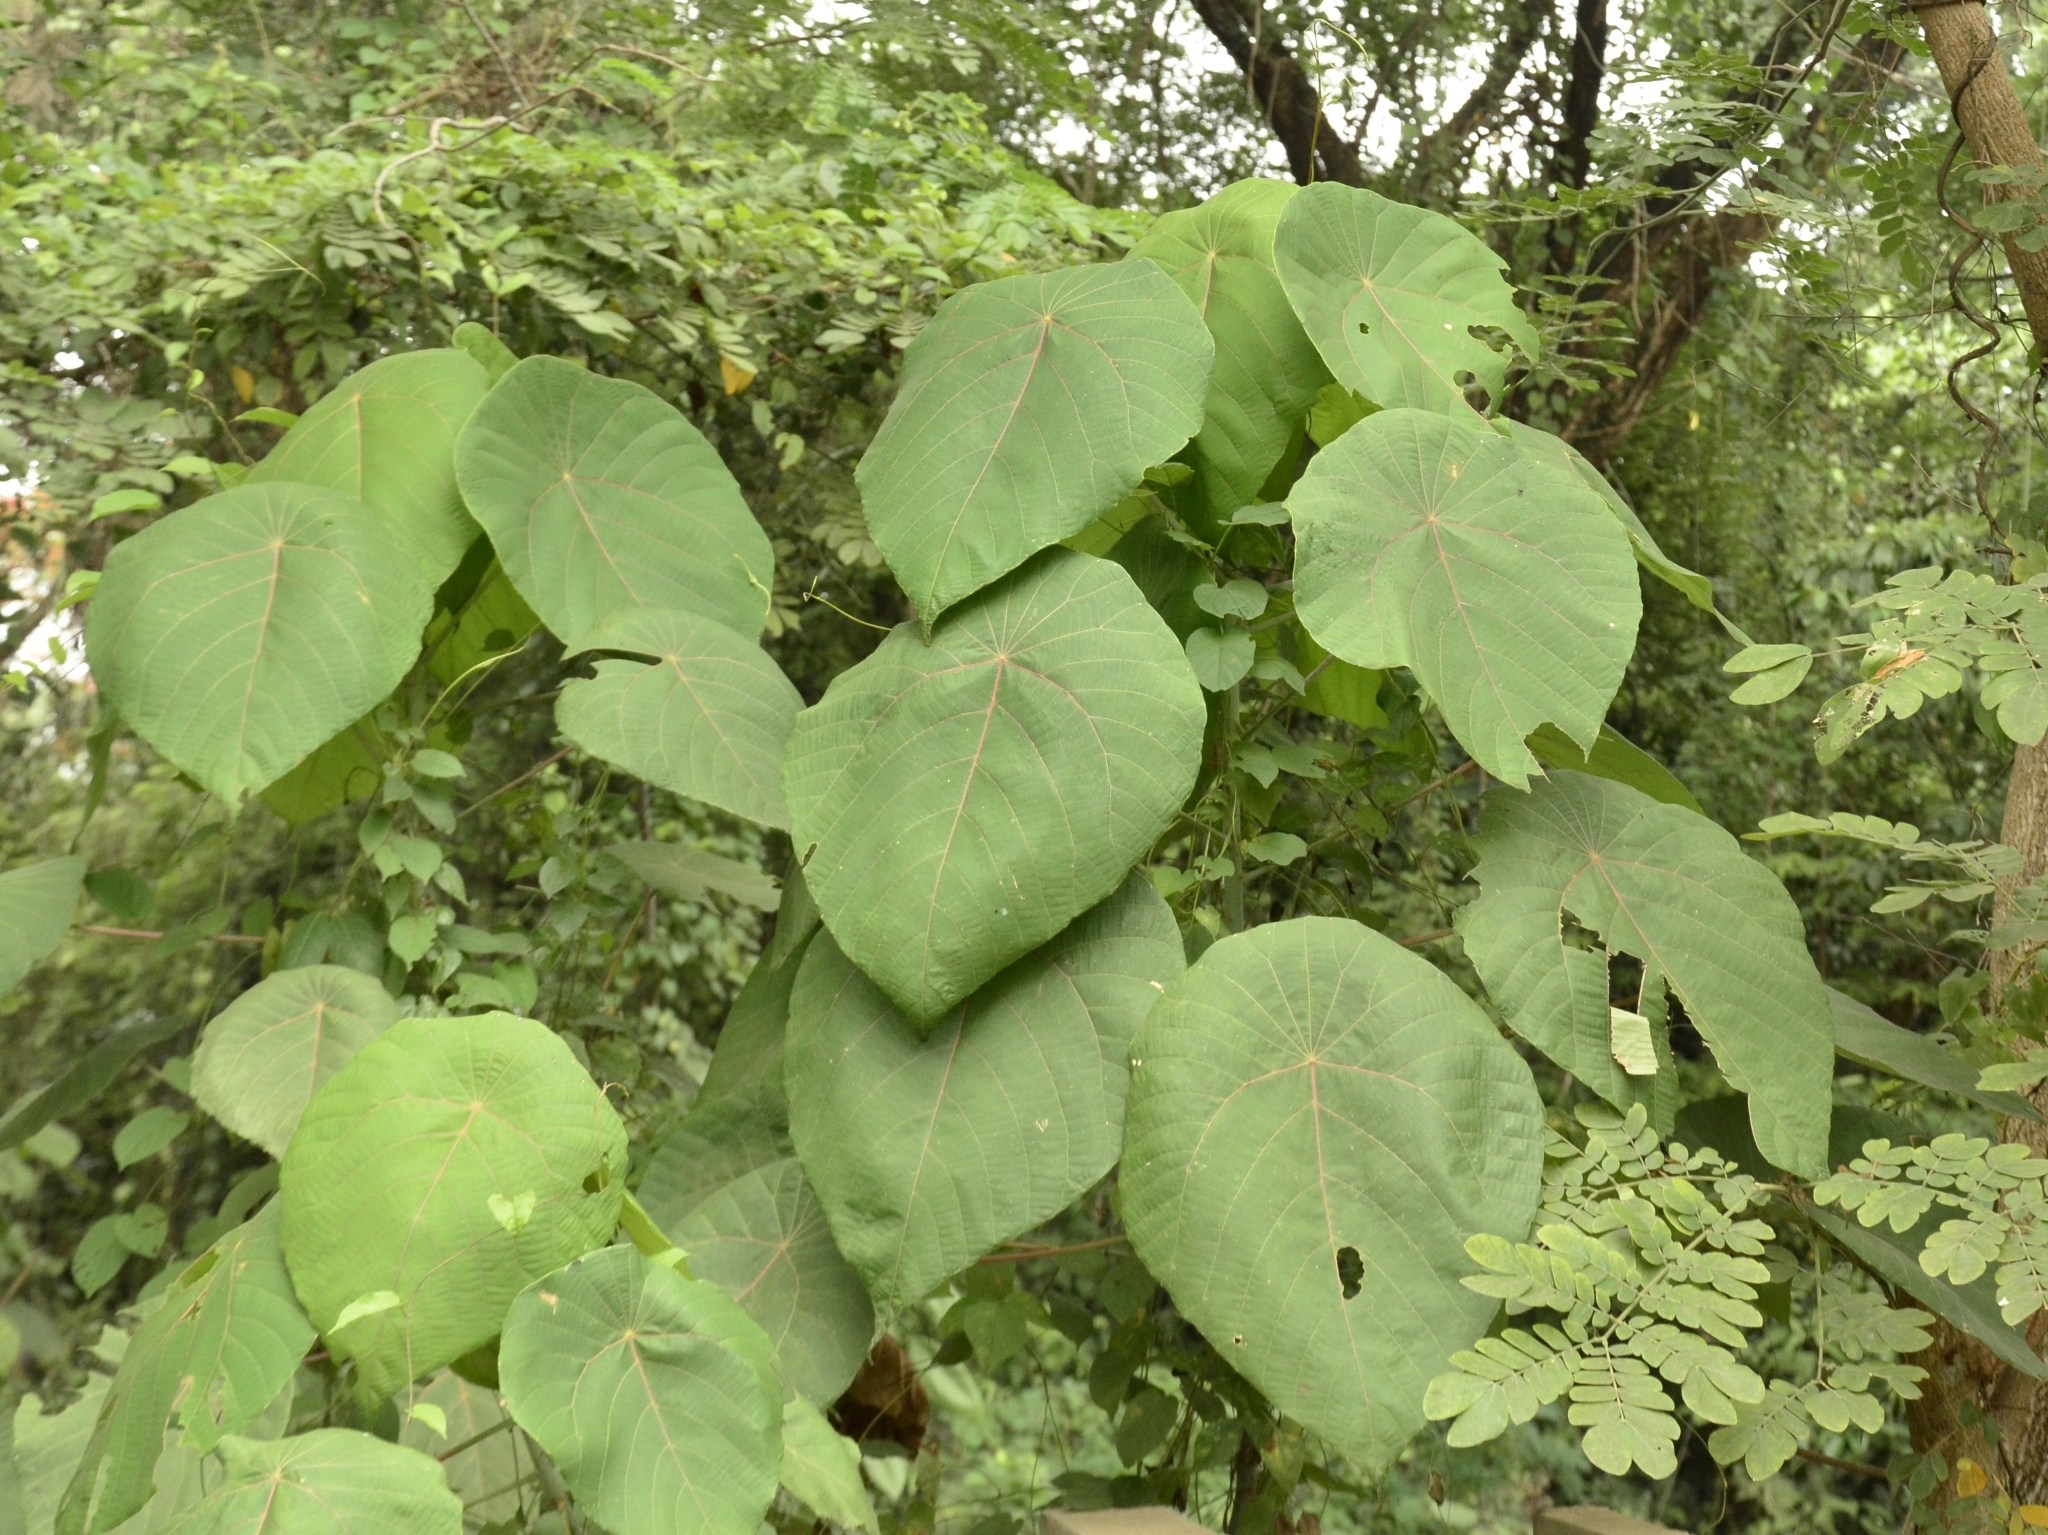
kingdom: Plantae
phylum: Tracheophyta
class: Magnoliopsida
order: Malpighiales
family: Euphorbiaceae
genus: Macaranga
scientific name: Macaranga tanarius
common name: Parasol leaf tree
